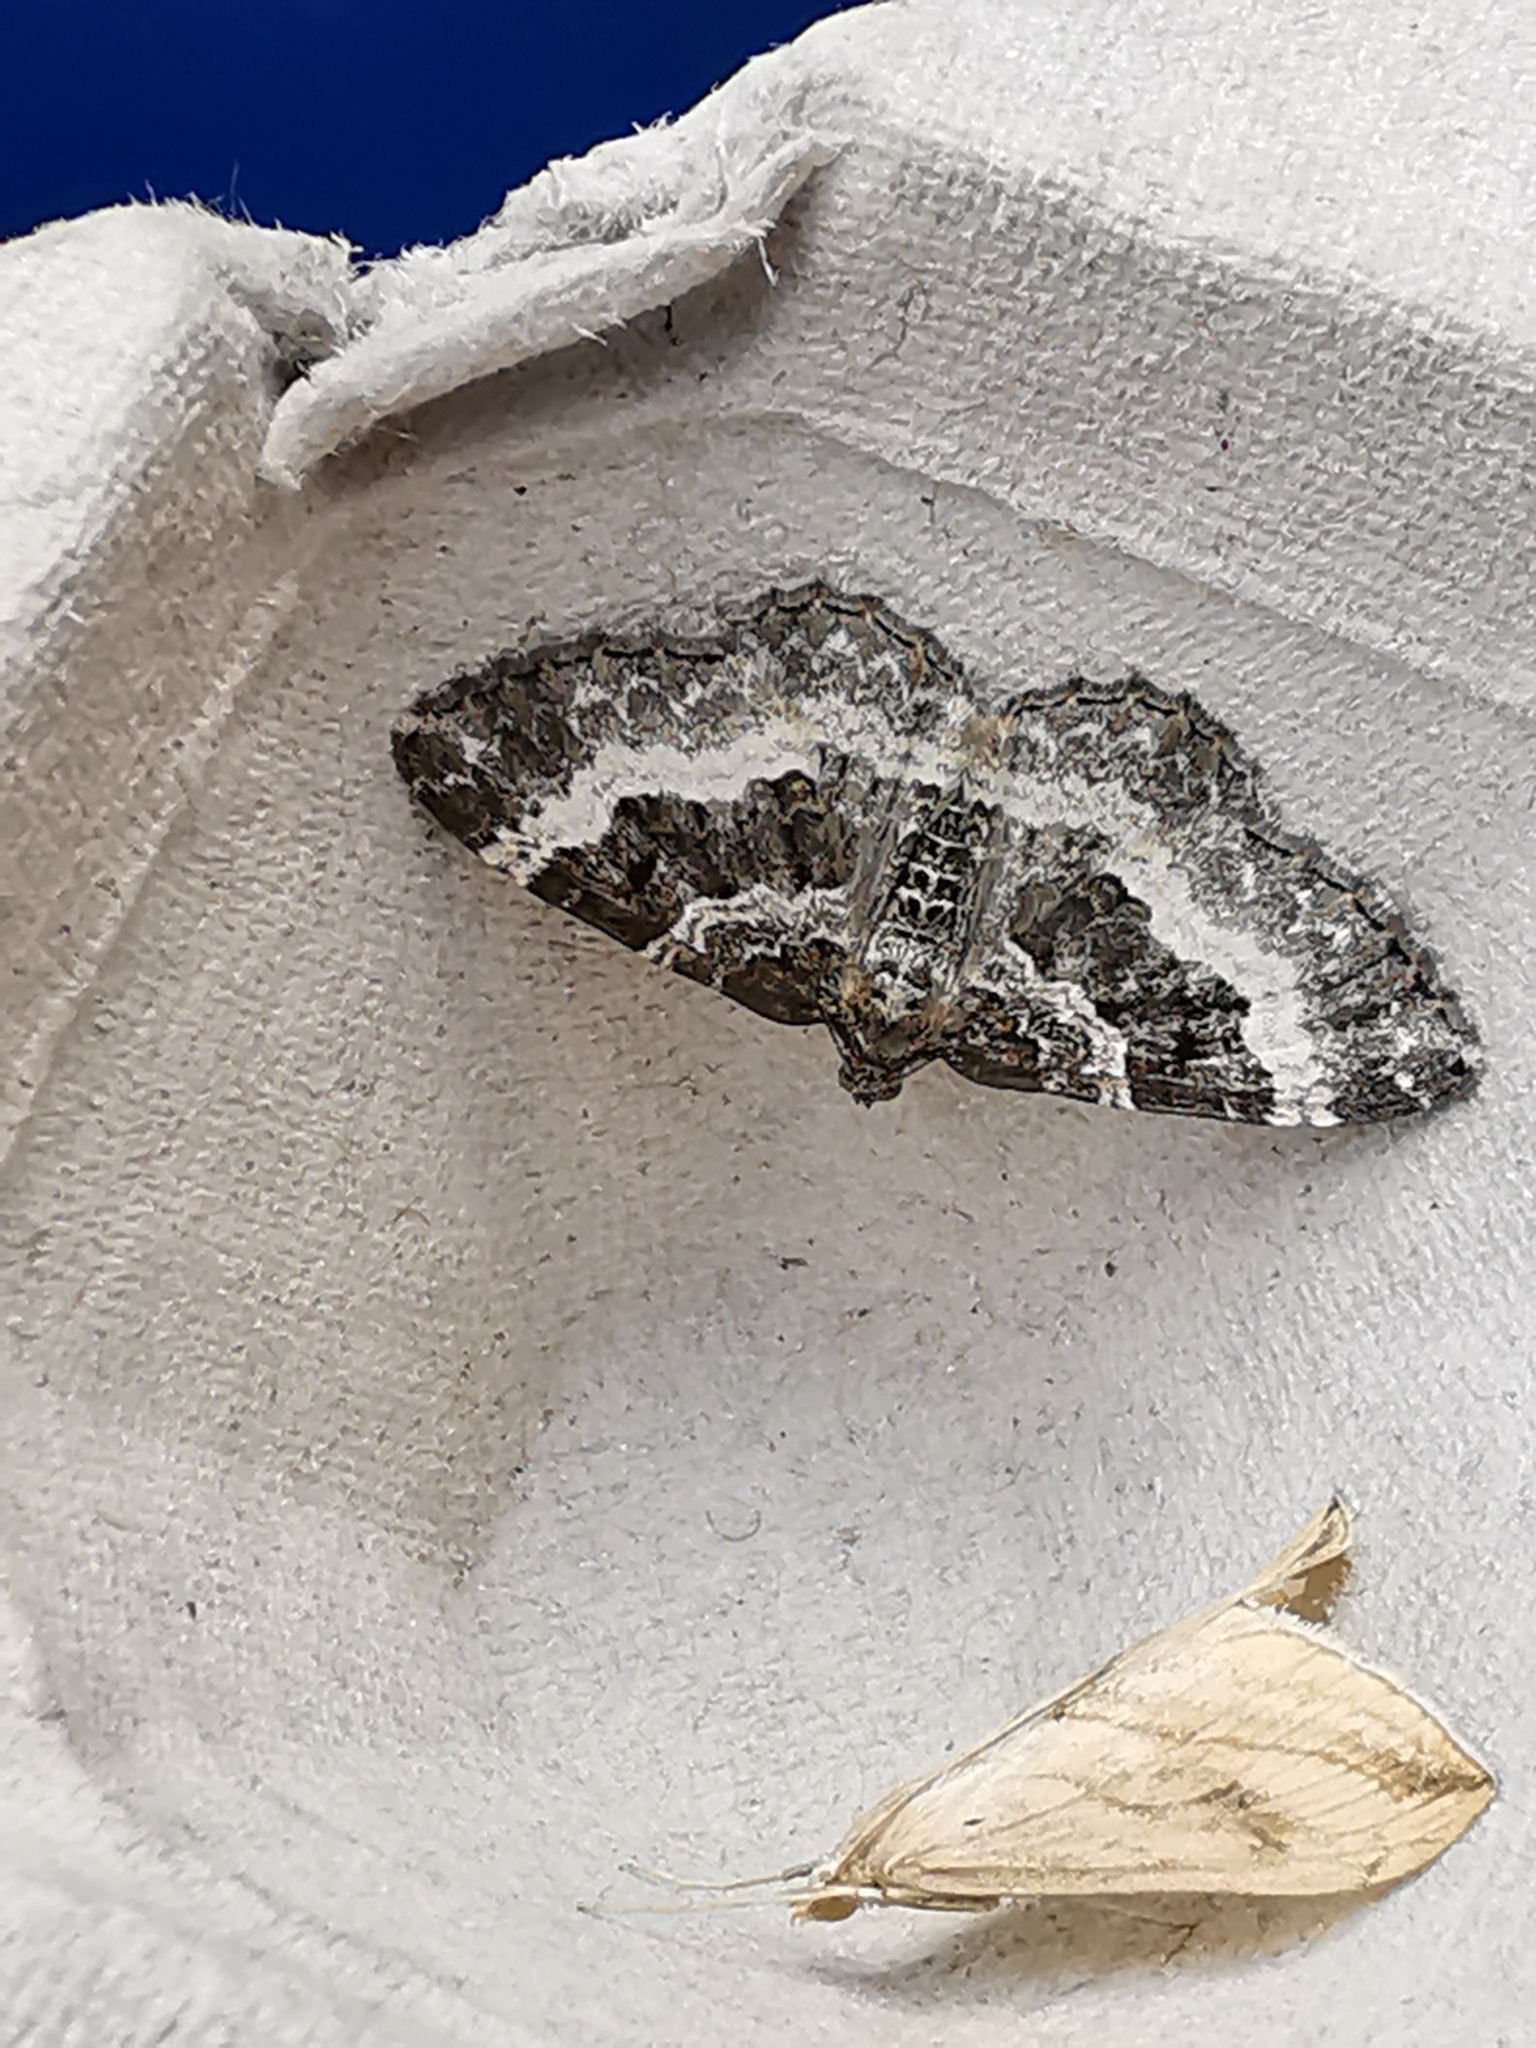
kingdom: Animalia
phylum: Arthropoda
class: Insecta
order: Lepidoptera
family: Geometridae
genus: Epirrhoe
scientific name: Epirrhoe alternata
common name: Common carpet
